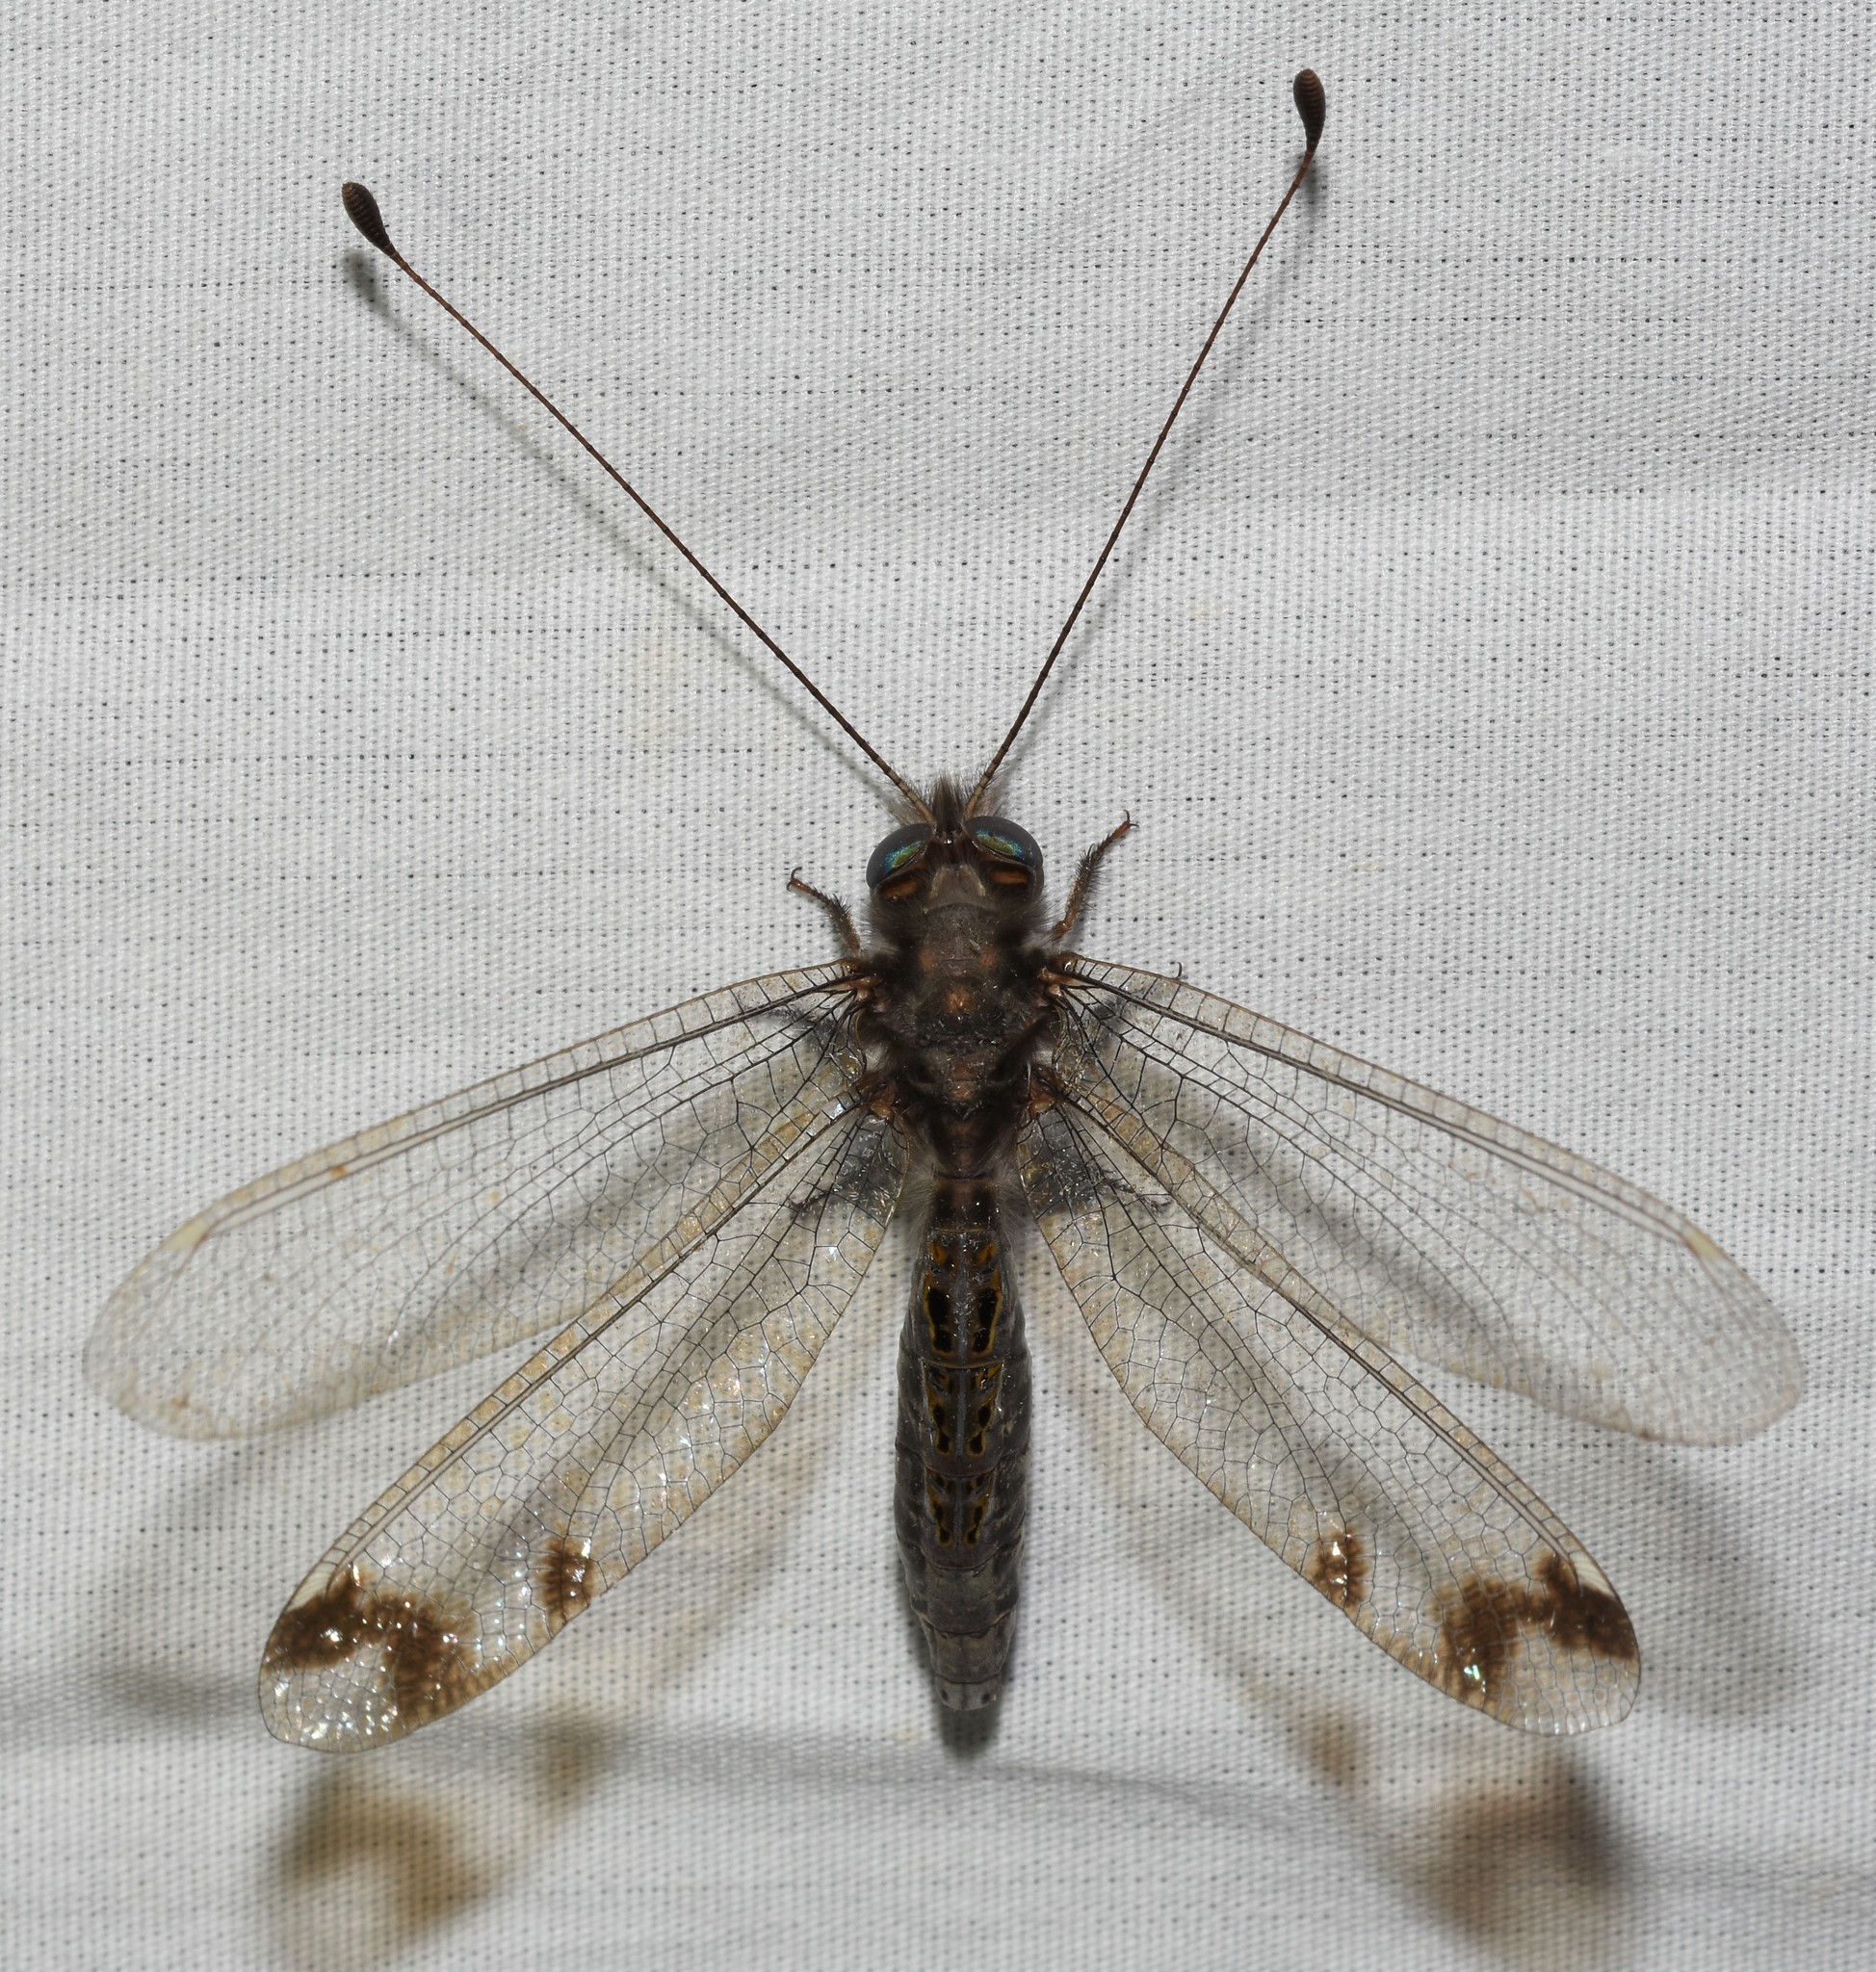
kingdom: Animalia
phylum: Arthropoda
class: Insecta
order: Neuroptera
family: Ascalaphidae
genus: Ululodes
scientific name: Ululodes quadripunctatus
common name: Four-spotted owlfly
